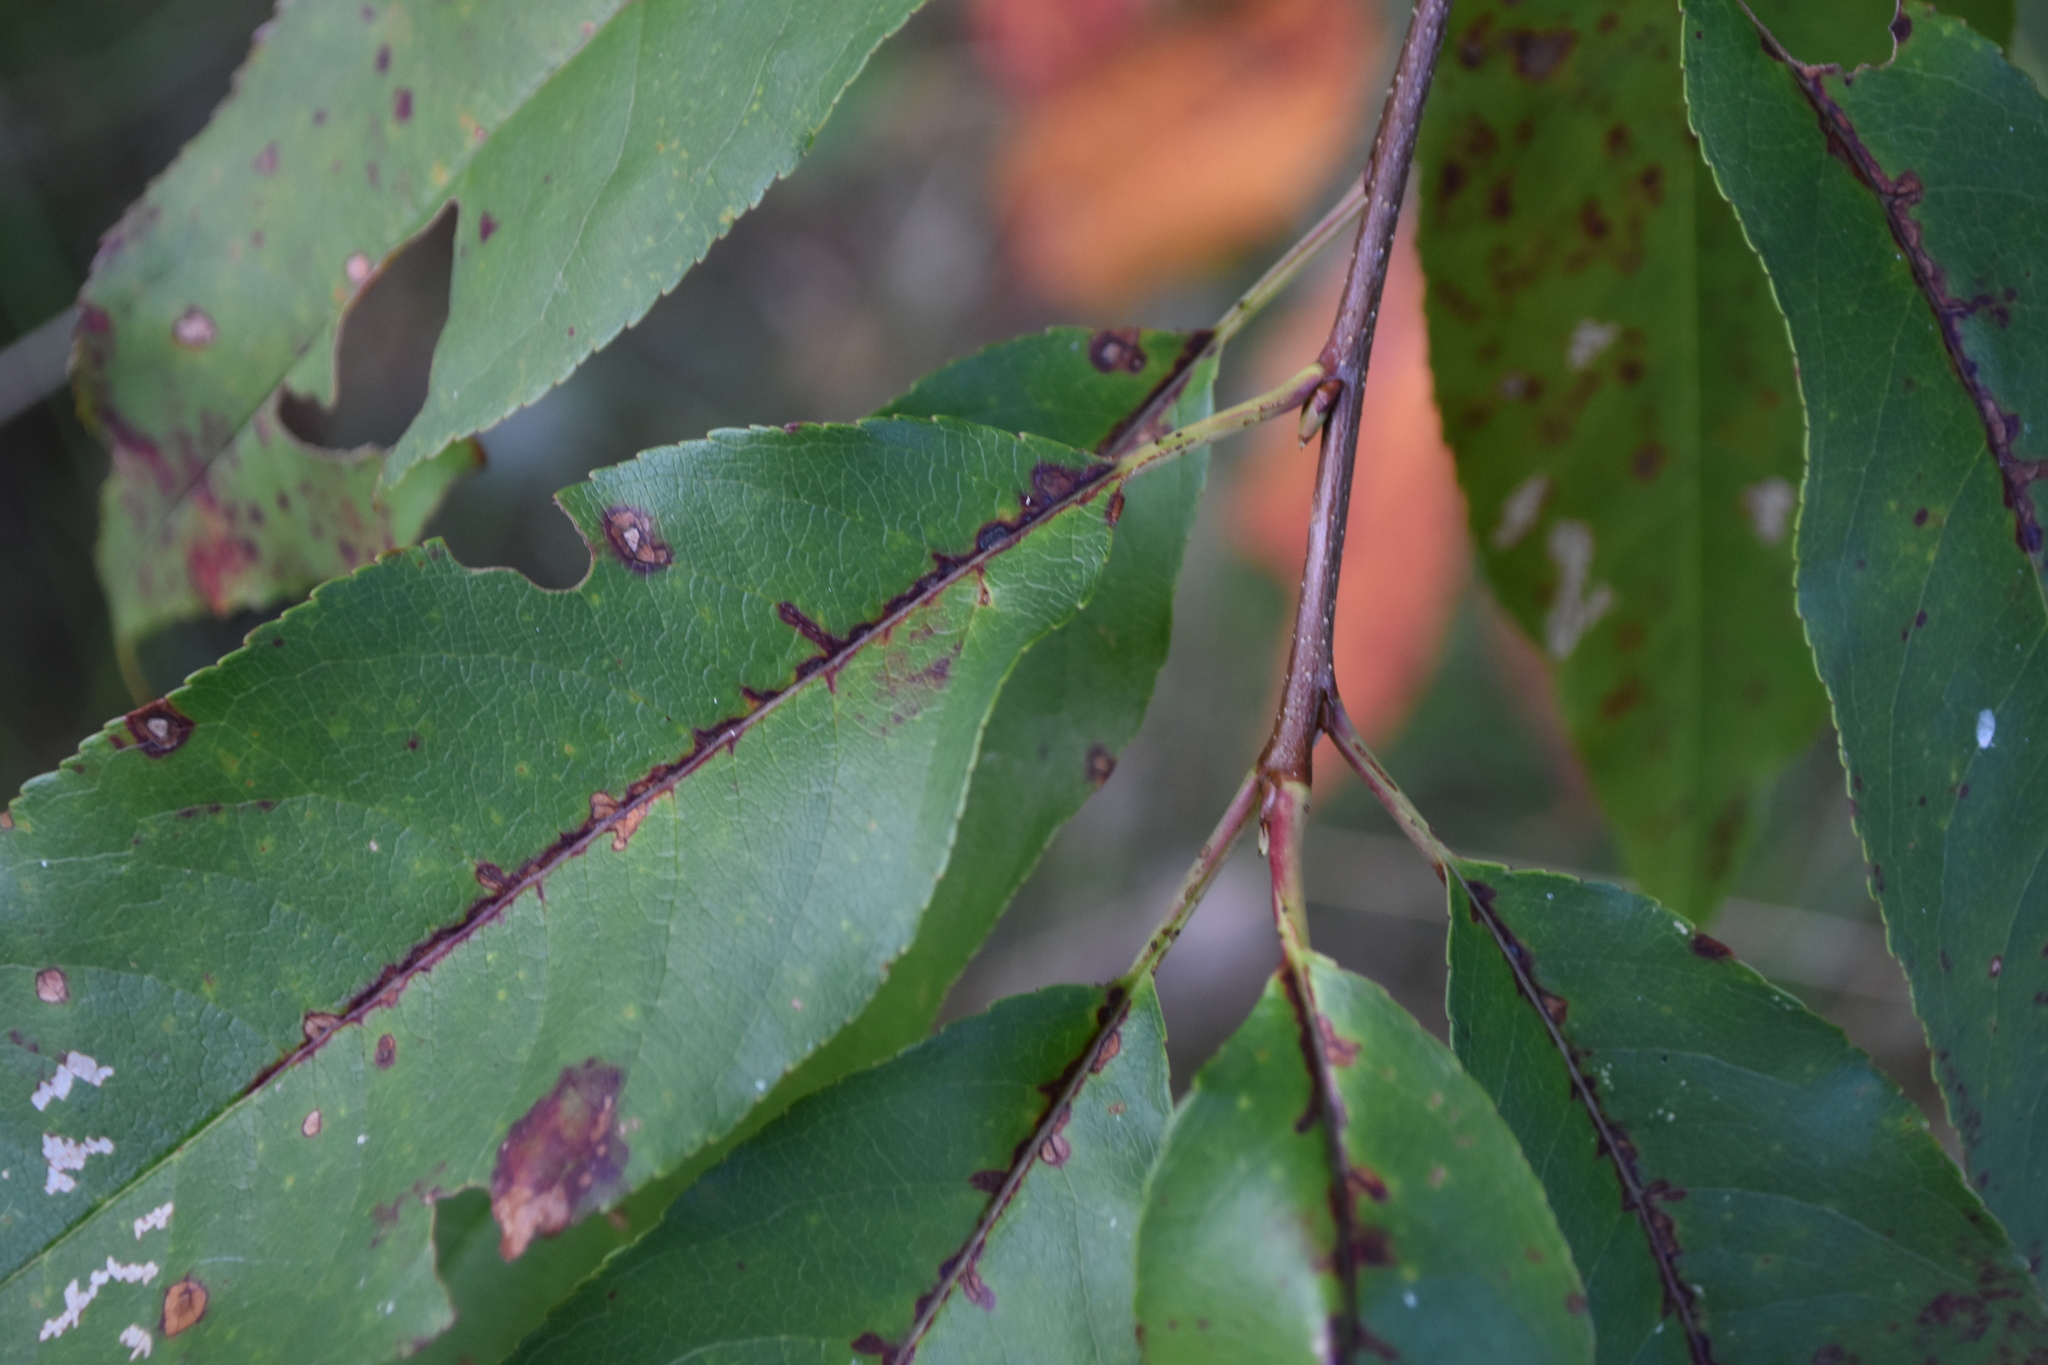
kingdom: Plantae
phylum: Tracheophyta
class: Magnoliopsida
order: Rosales
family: Elaeagnaceae
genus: Elaeagnus
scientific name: Elaeagnus umbellata
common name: Autumn olive
